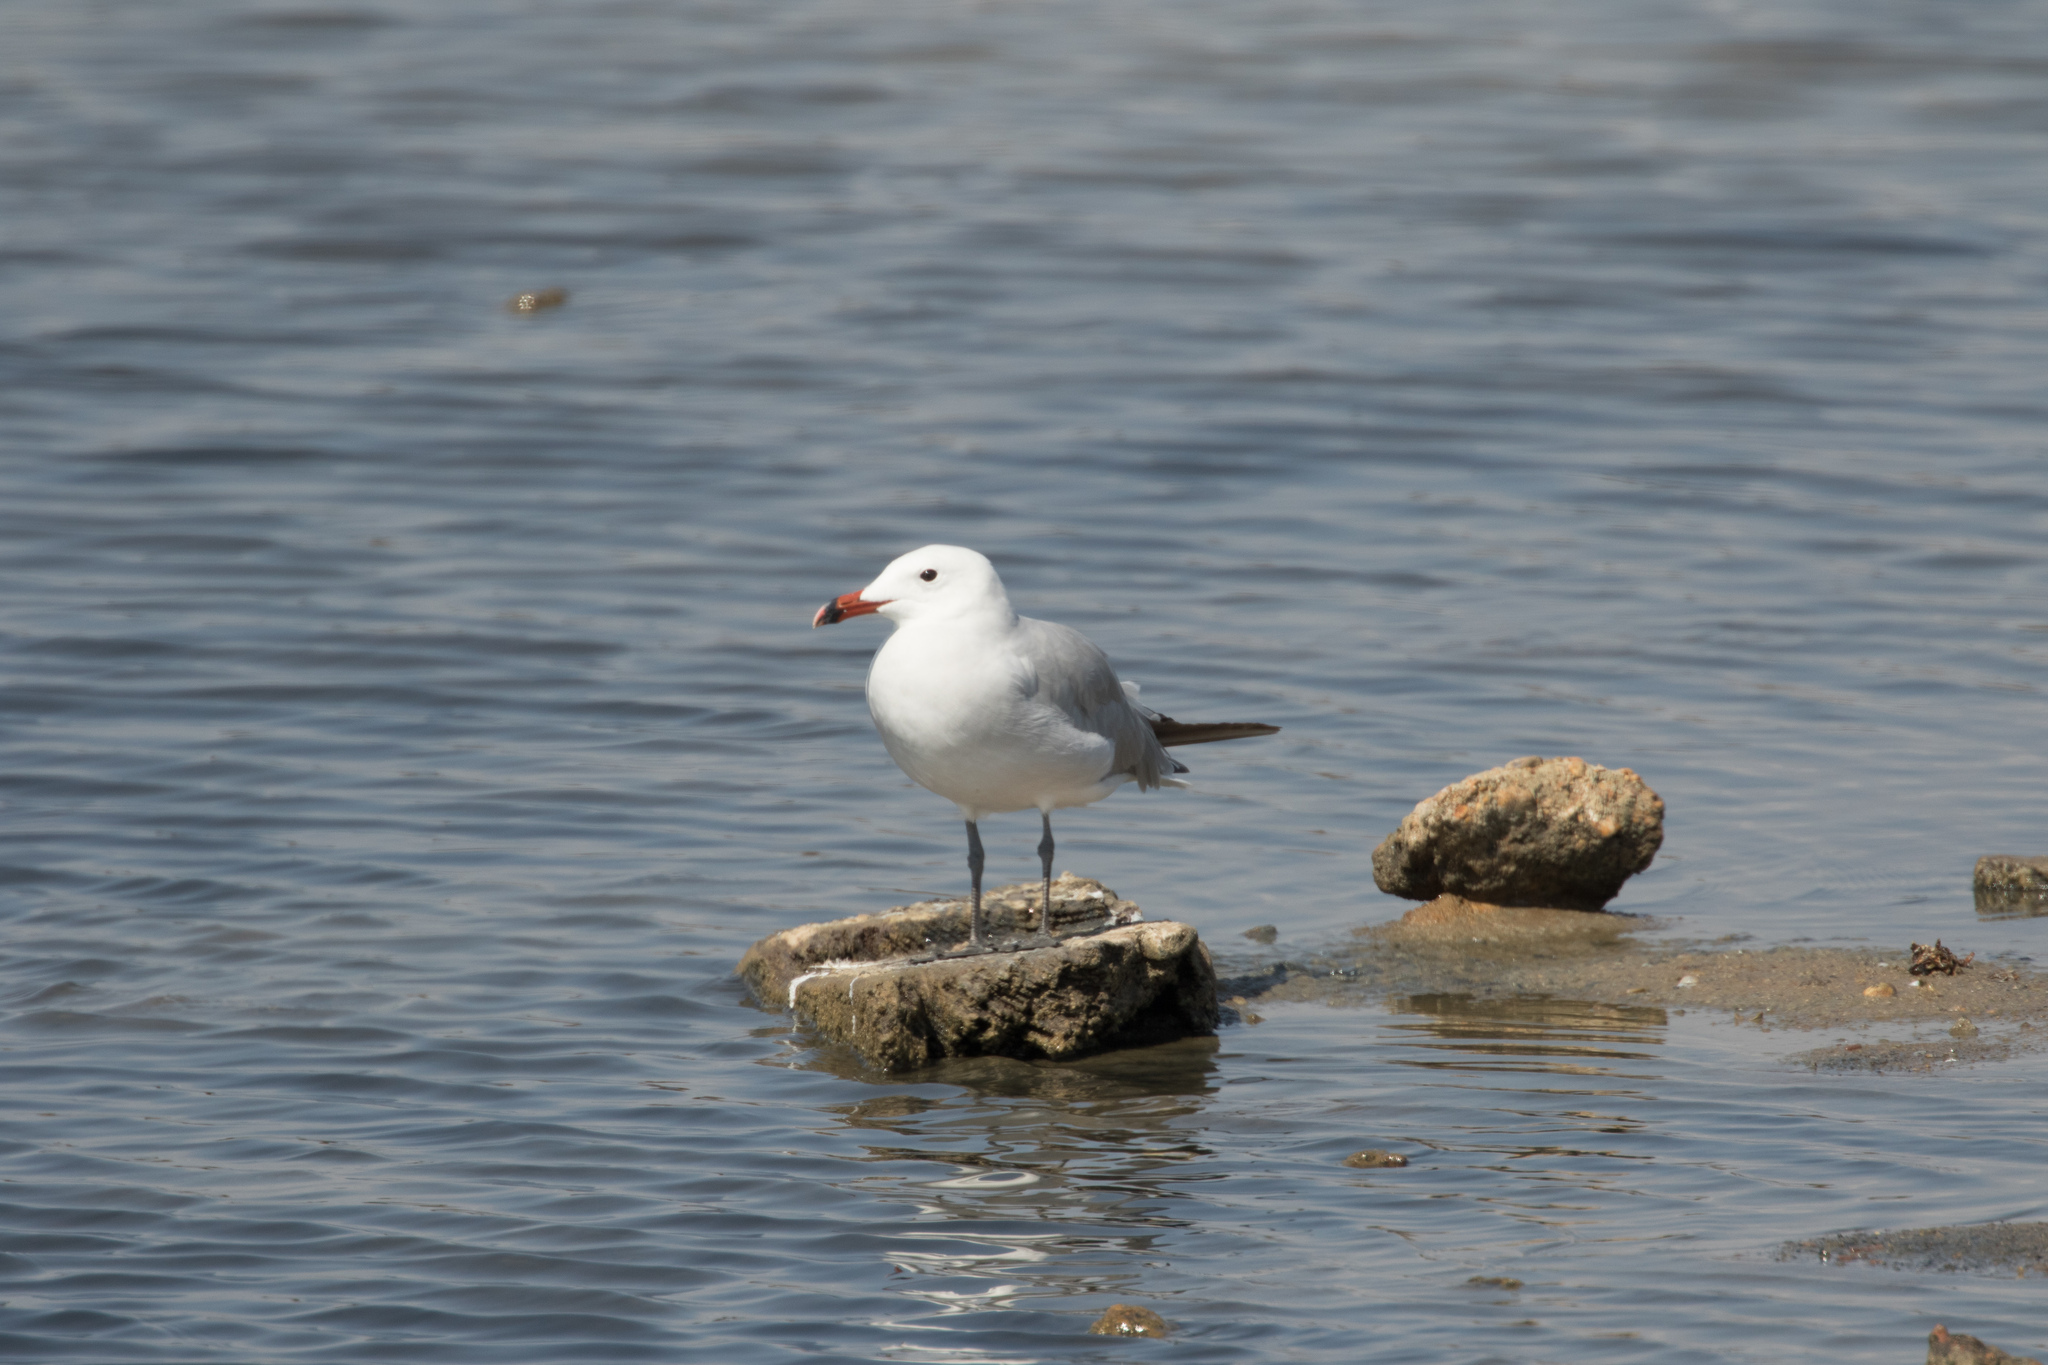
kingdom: Animalia
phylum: Chordata
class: Aves
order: Charadriiformes
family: Laridae
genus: Ichthyaetus
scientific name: Ichthyaetus audouinii
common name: Audouin's gull
